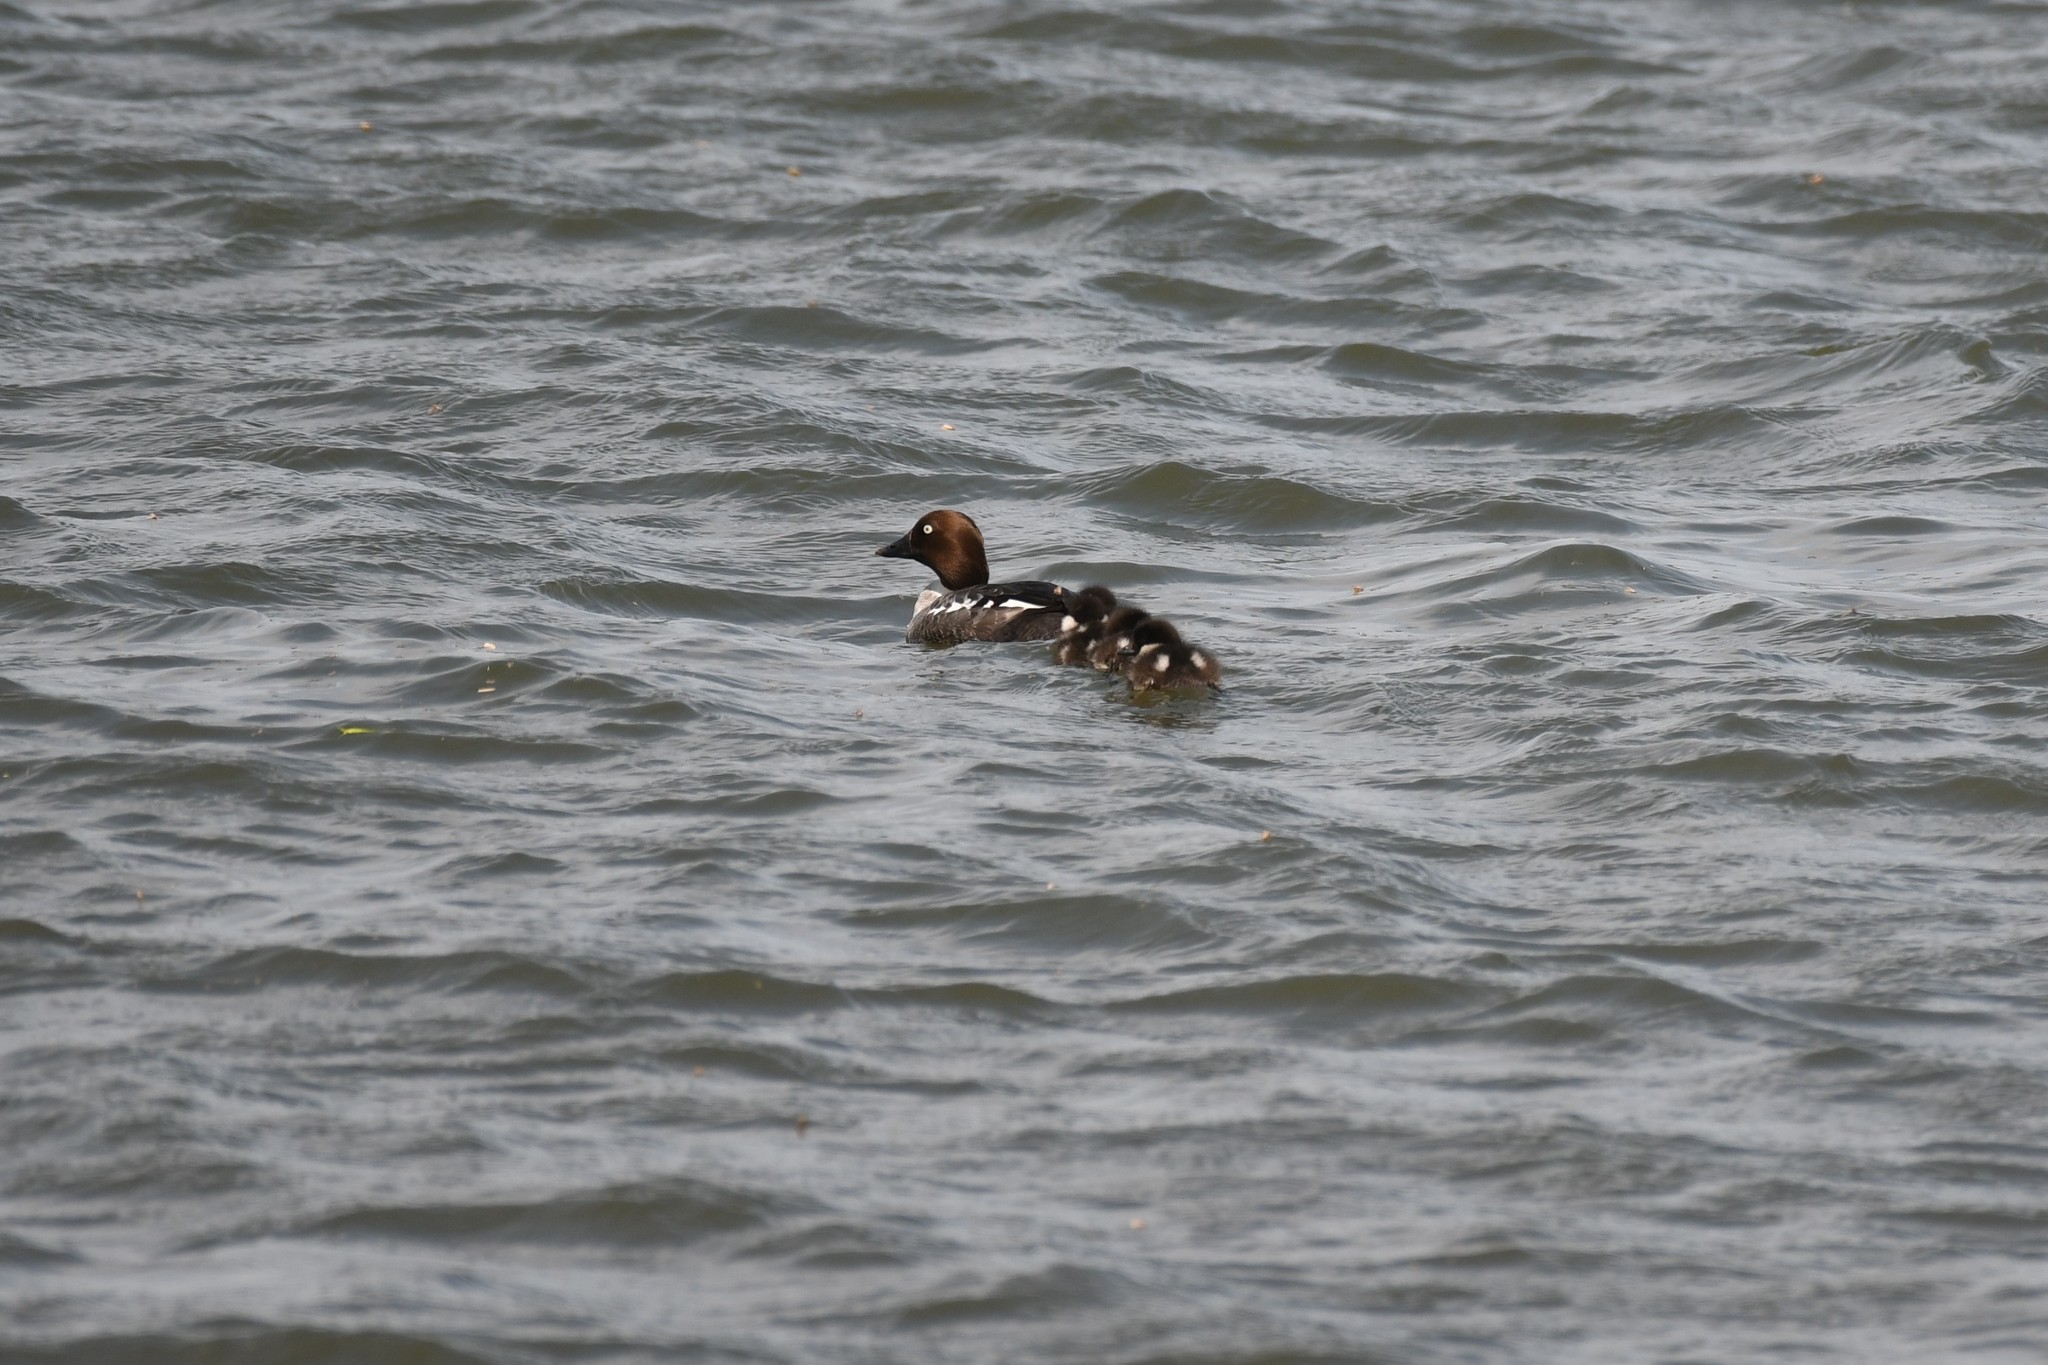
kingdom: Animalia
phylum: Chordata
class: Aves
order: Anseriformes
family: Anatidae
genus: Bucephala
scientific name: Bucephala clangula
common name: Common goldeneye
